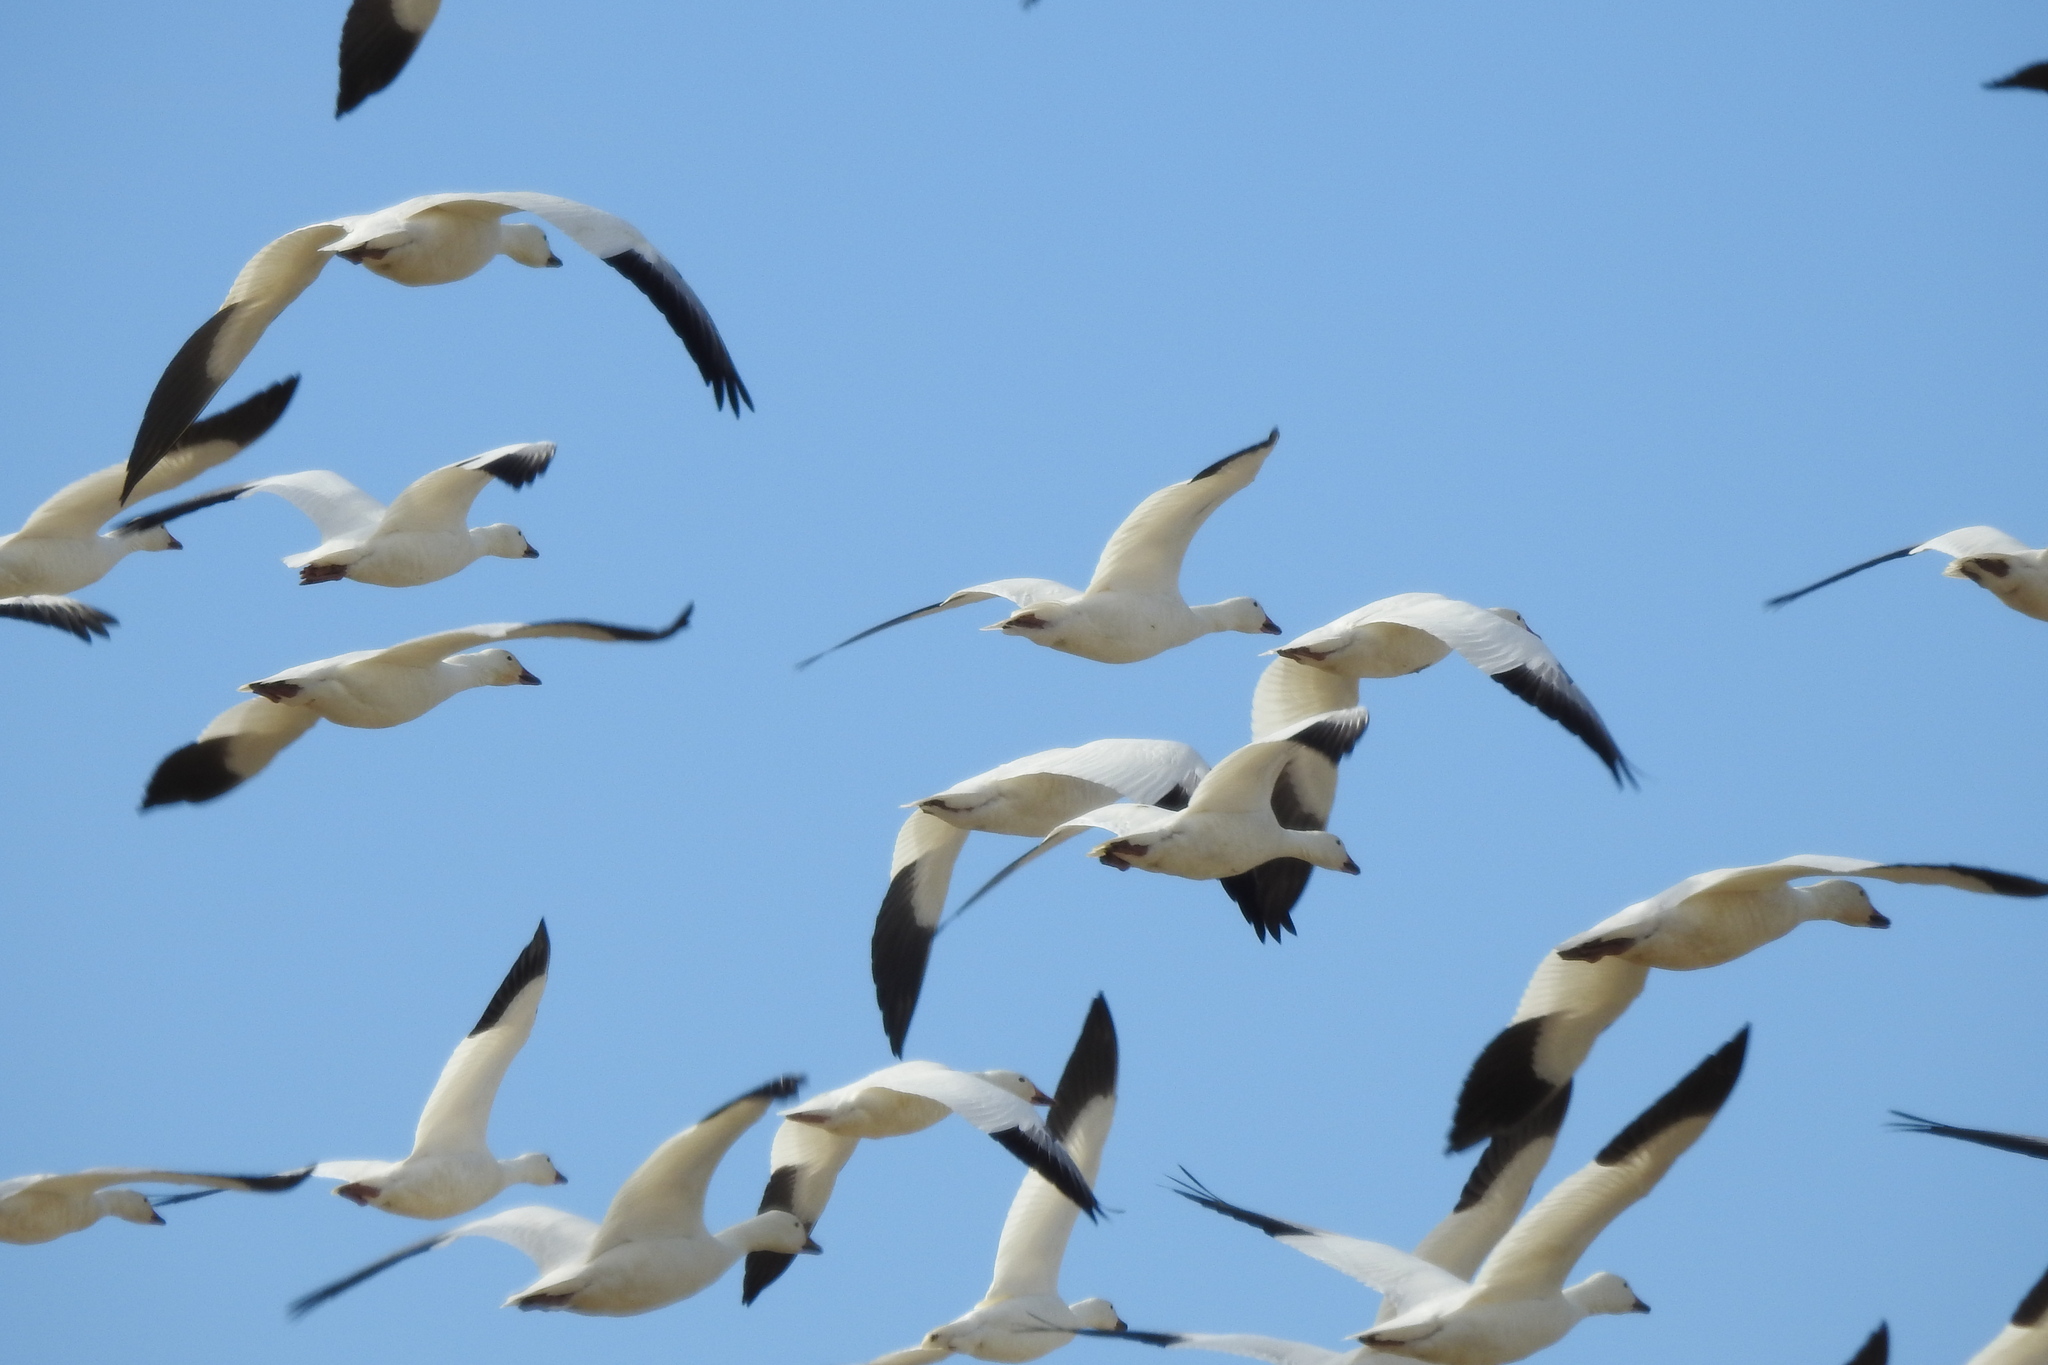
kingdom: Animalia
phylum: Chordata
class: Aves
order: Anseriformes
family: Anatidae
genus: Anser
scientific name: Anser caerulescens
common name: Snow goose
